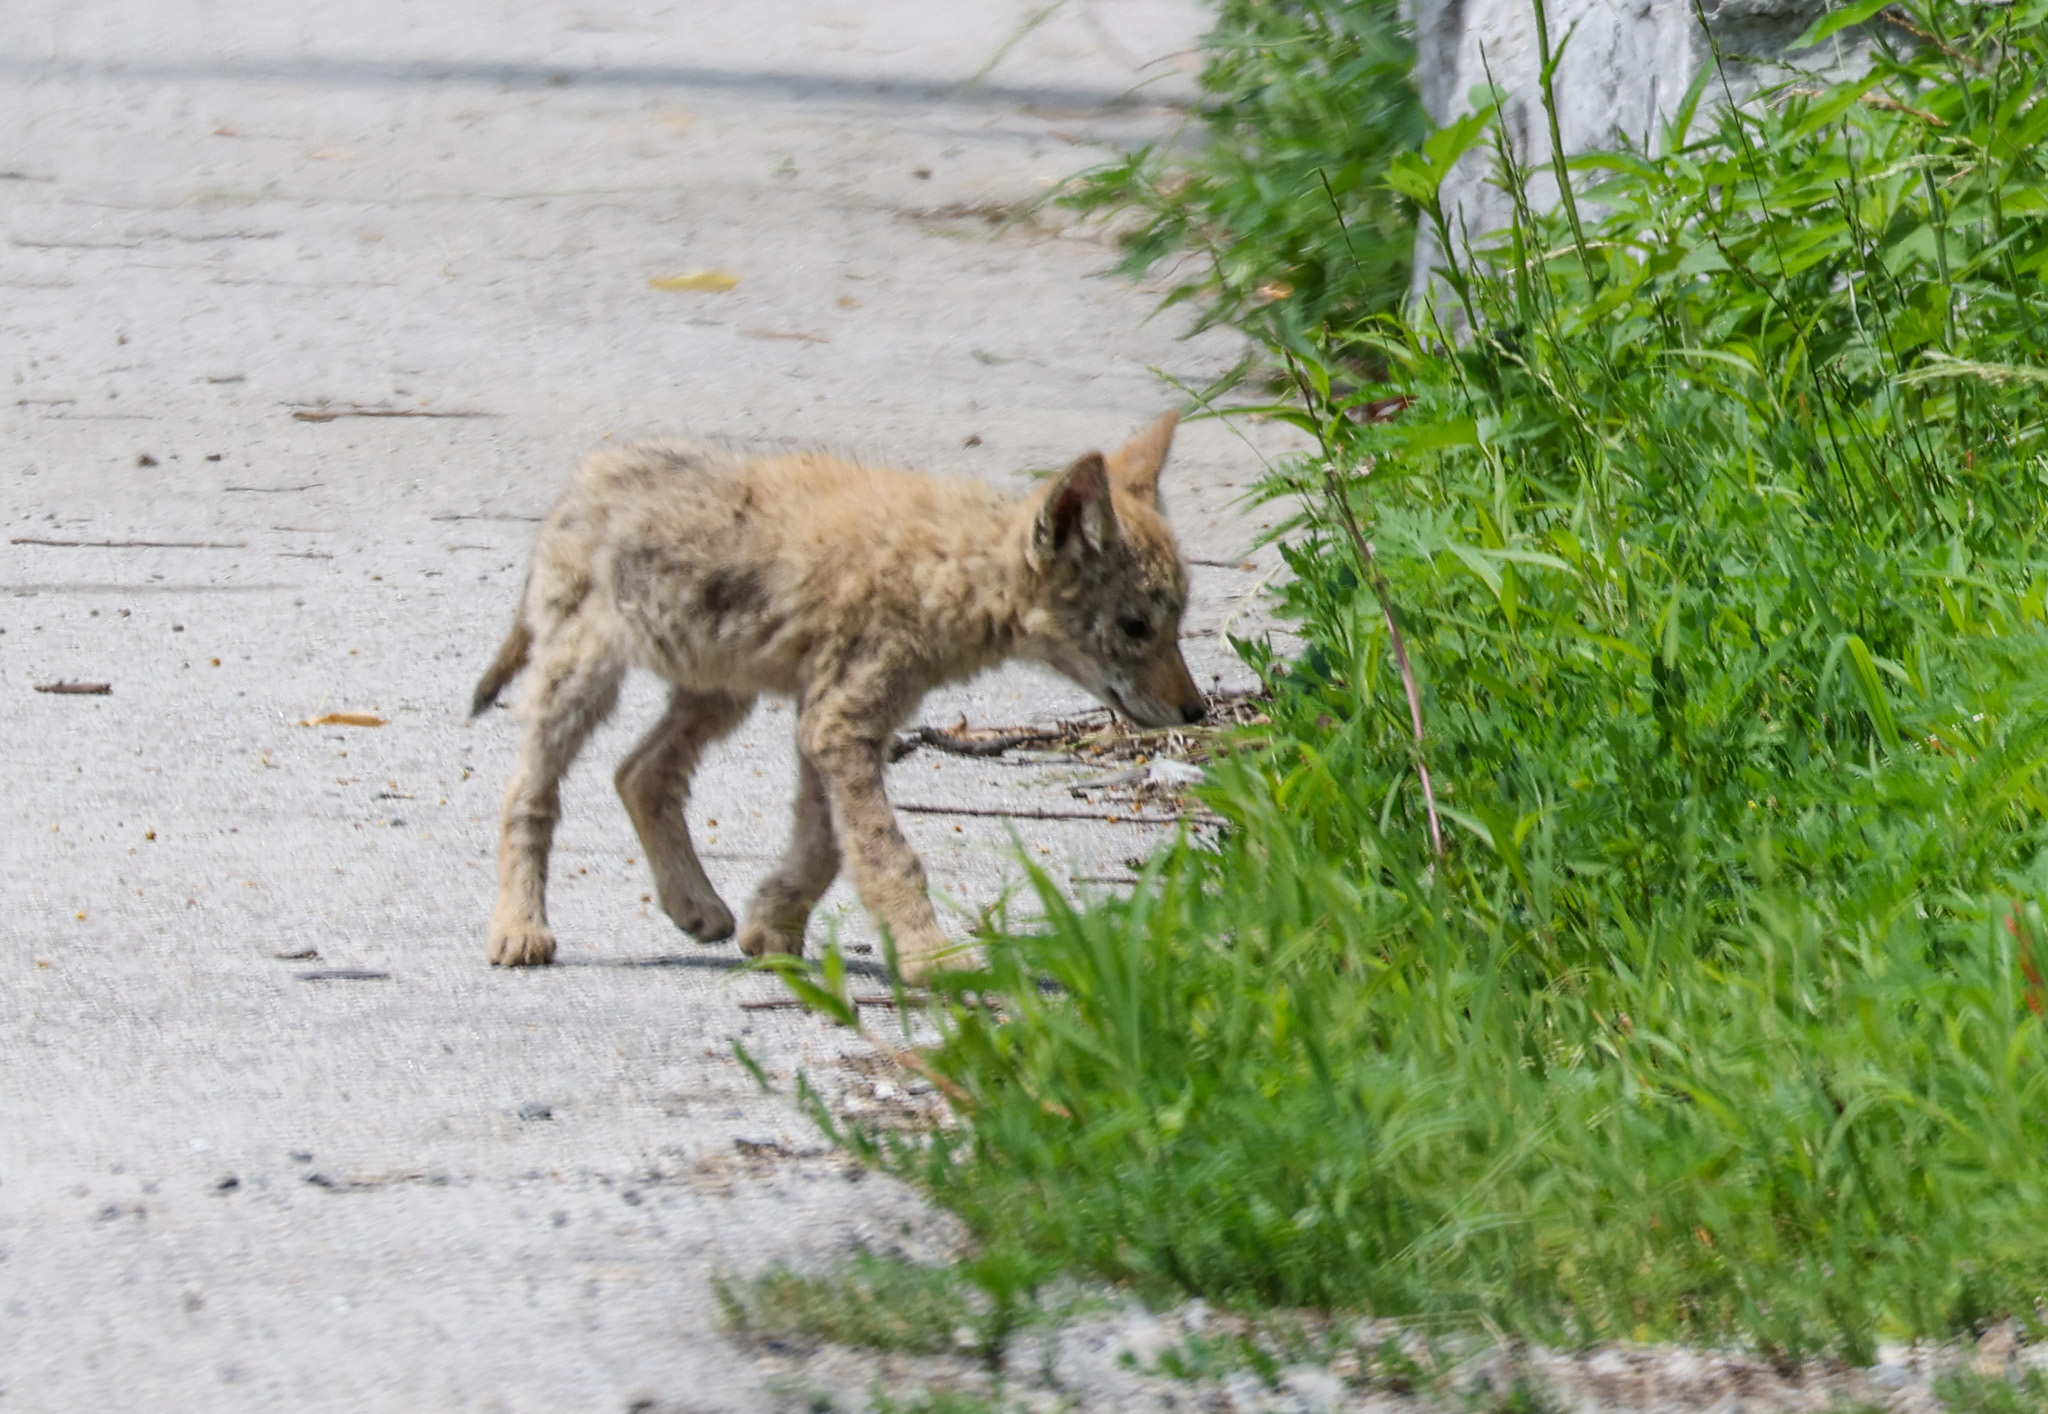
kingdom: Animalia
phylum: Chordata
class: Mammalia
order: Carnivora
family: Canidae
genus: Canis
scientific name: Canis latrans
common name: Coyote
